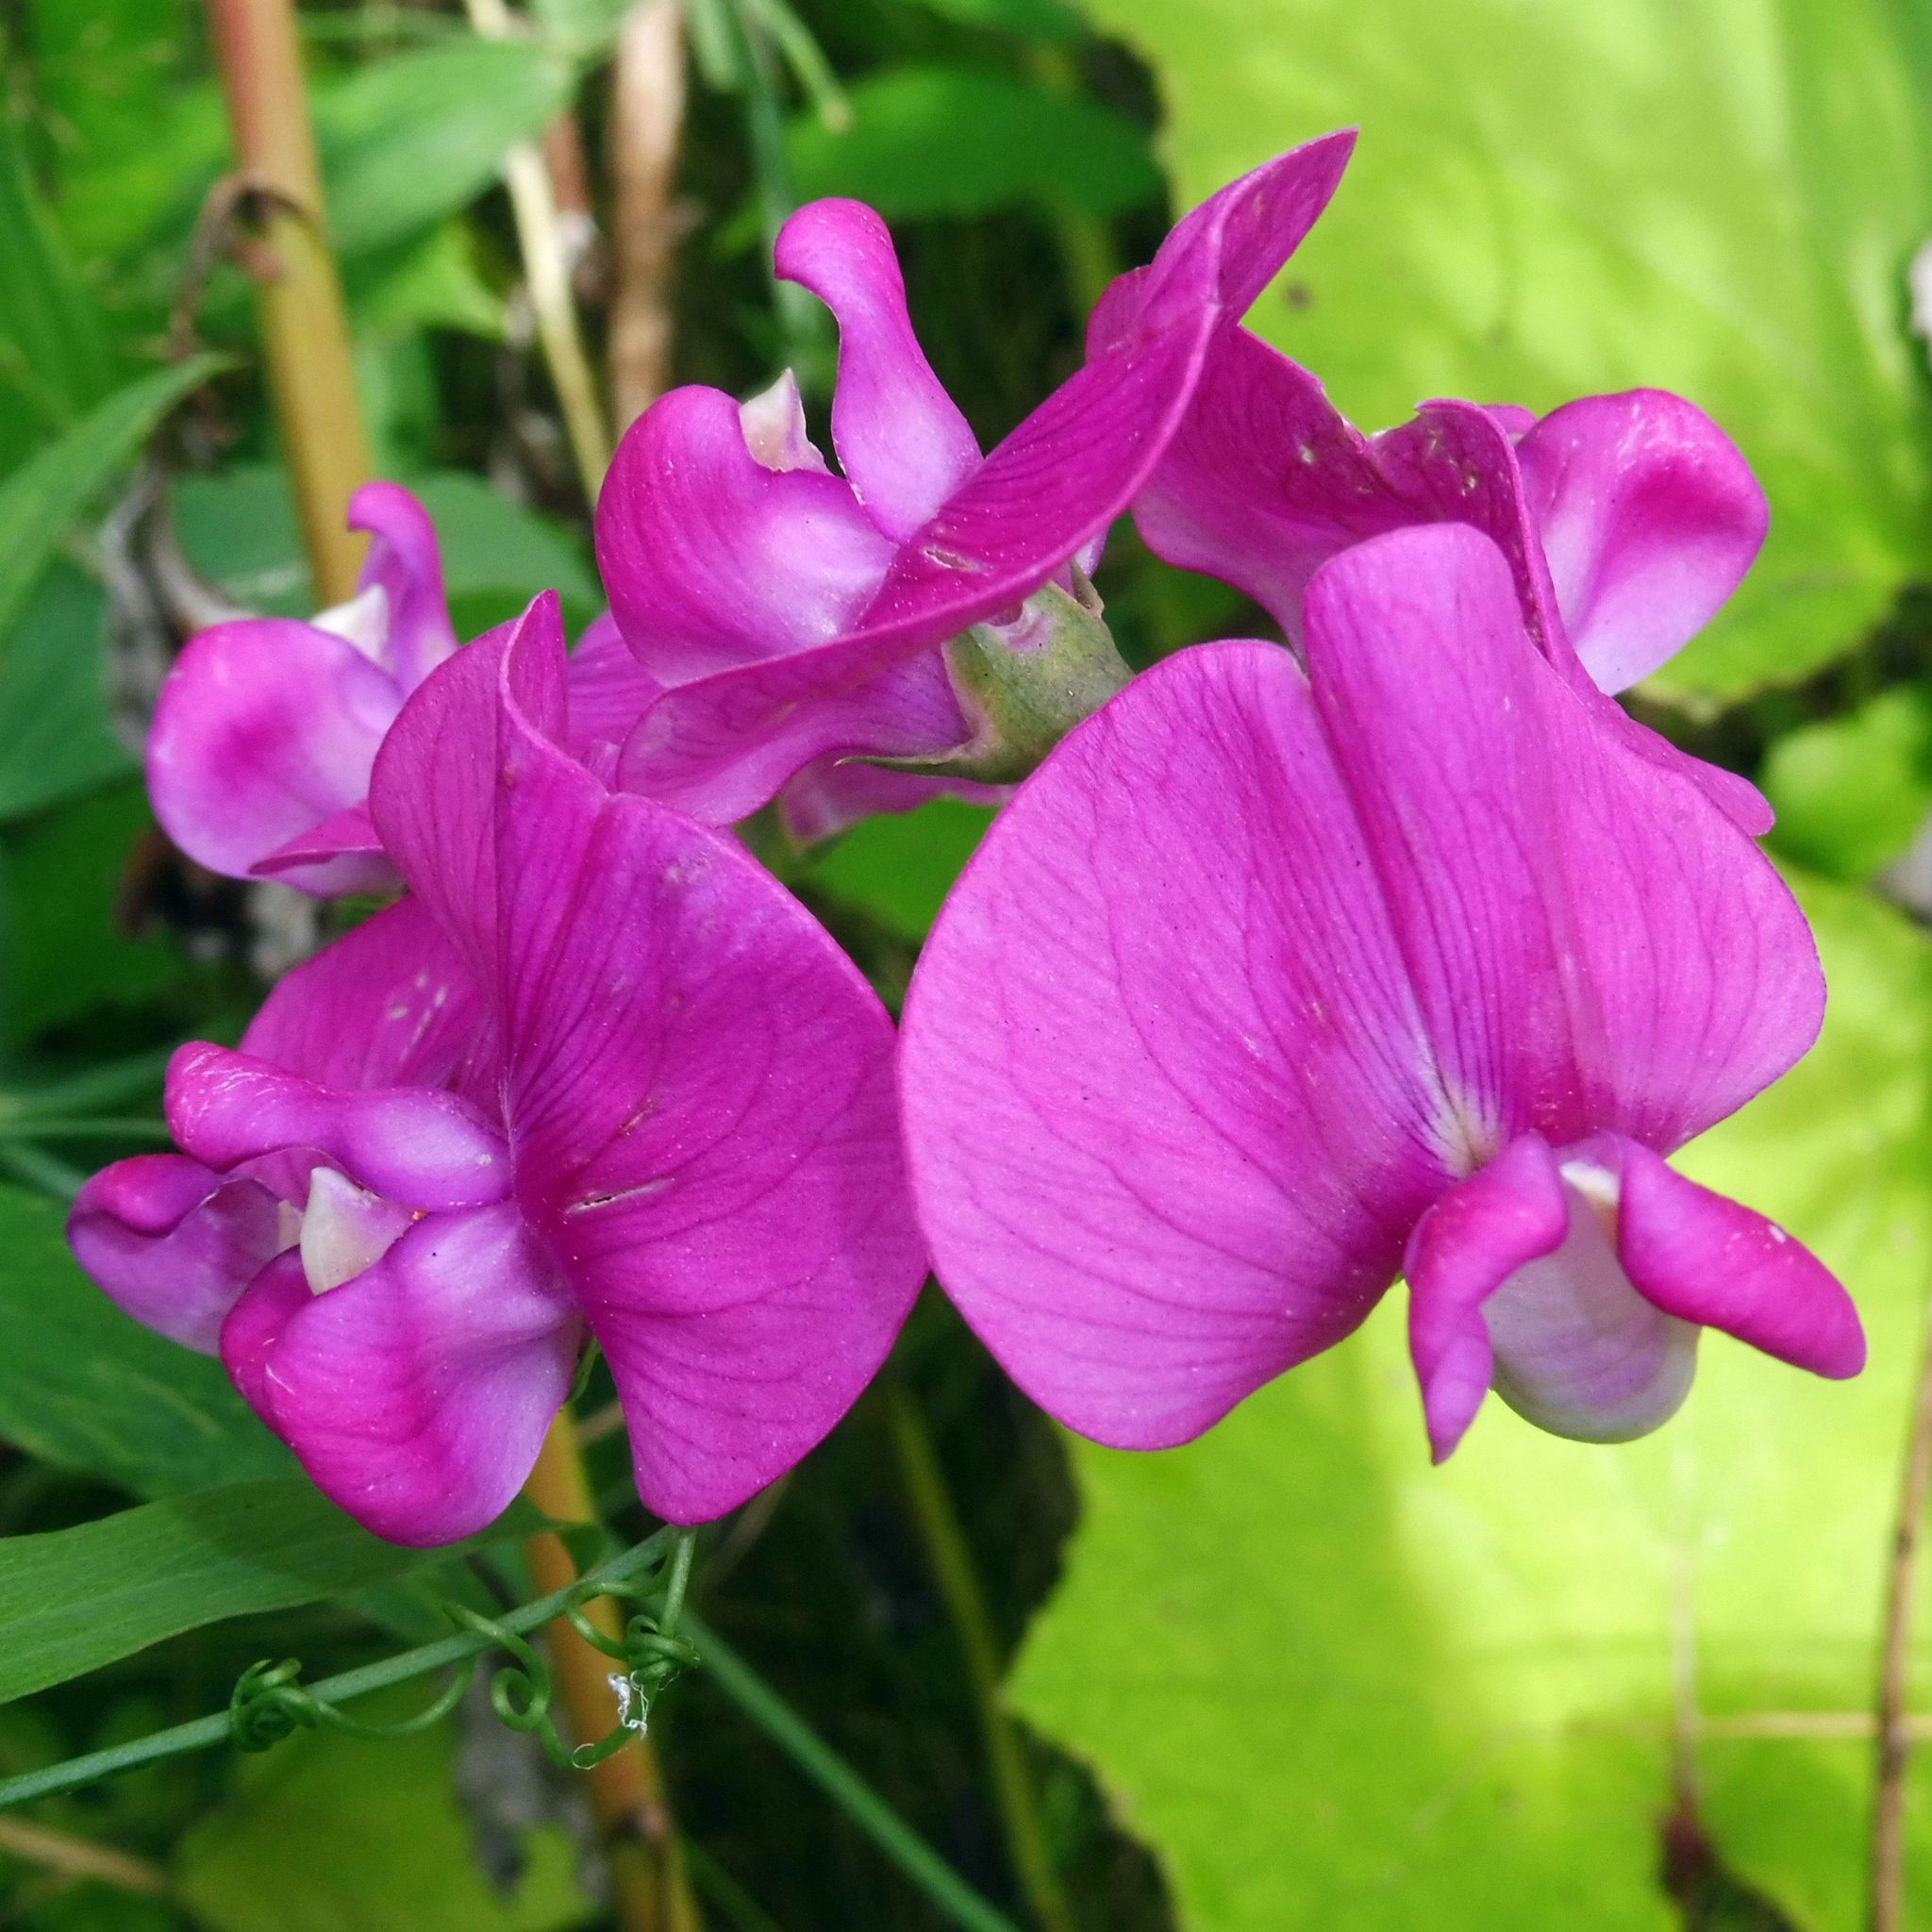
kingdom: Plantae
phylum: Tracheophyta
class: Magnoliopsida
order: Fabales
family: Fabaceae
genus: Lathyrus
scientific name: Lathyrus latifolius
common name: Perennial pea
